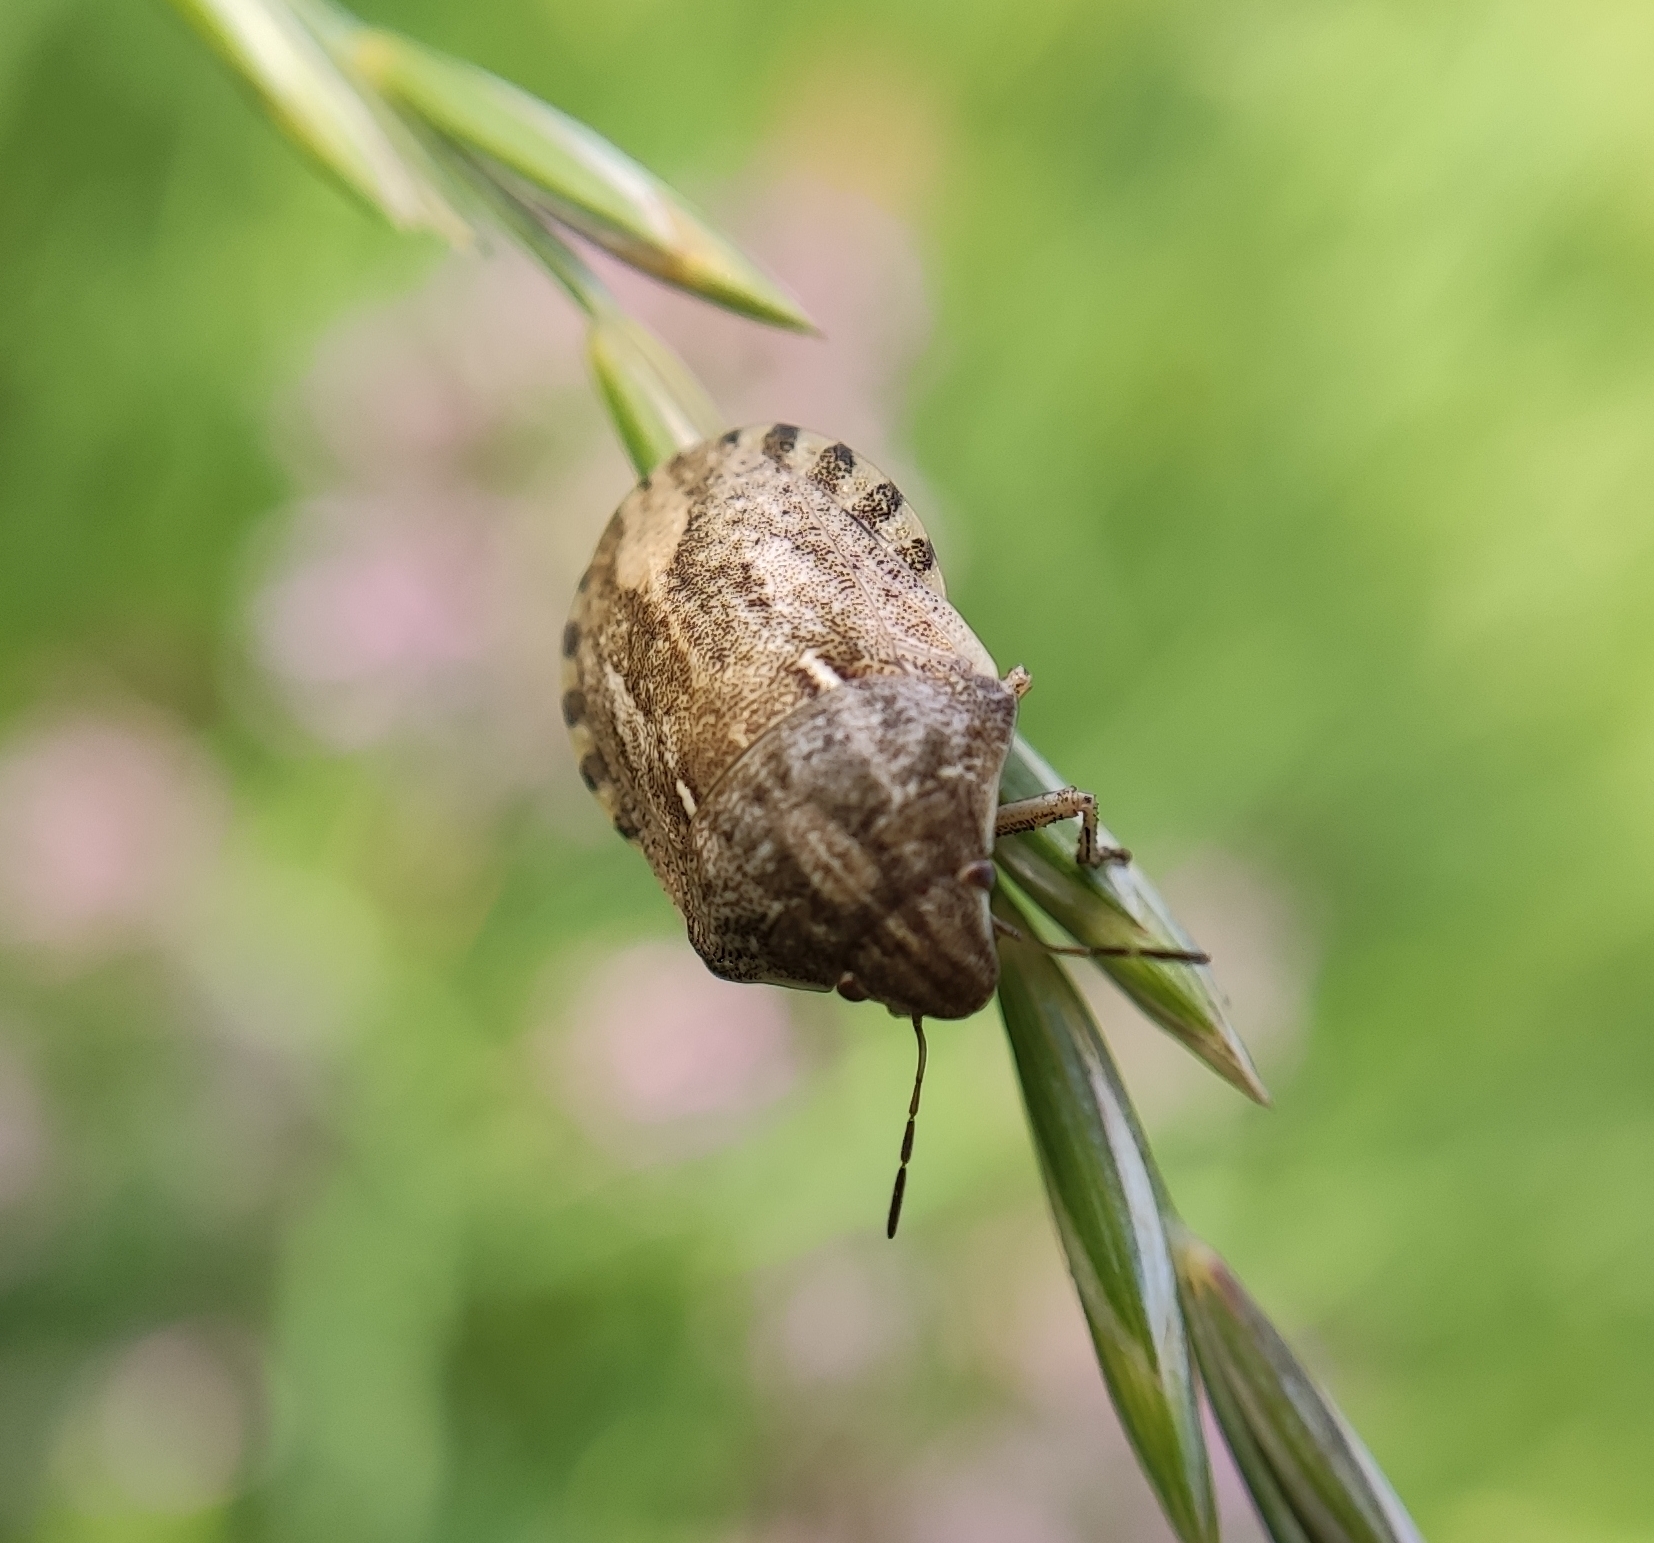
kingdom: Animalia
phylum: Arthropoda
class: Insecta
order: Hemiptera
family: Scutelleridae
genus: Eurygaster
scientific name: Eurygaster maura
